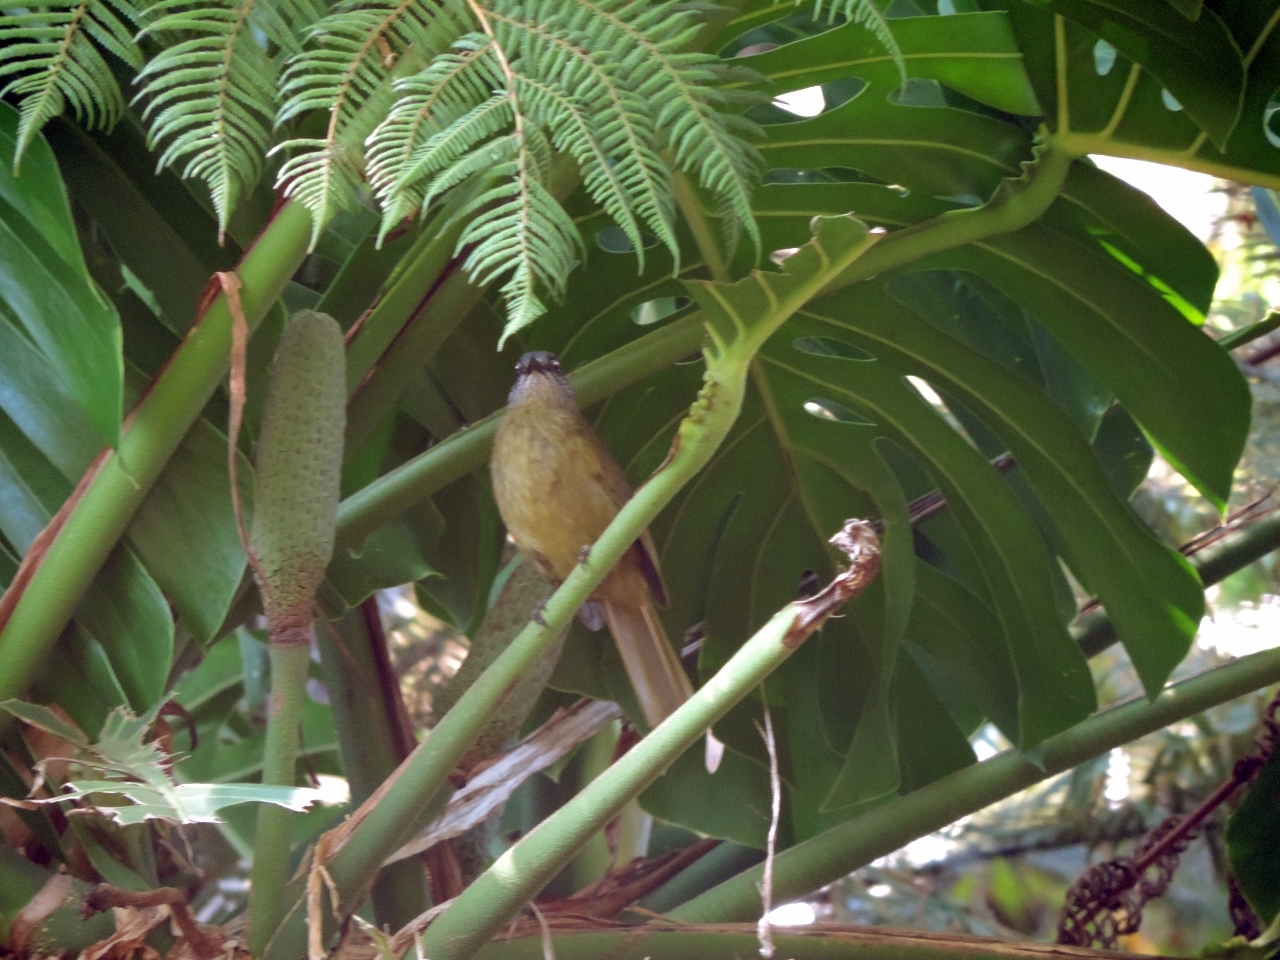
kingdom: Animalia
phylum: Chordata
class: Aves
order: Passeriformes
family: Pycnonotidae
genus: Arizelocichla
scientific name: Arizelocichla milanjensis
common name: Stripe-cheeked greenbul
